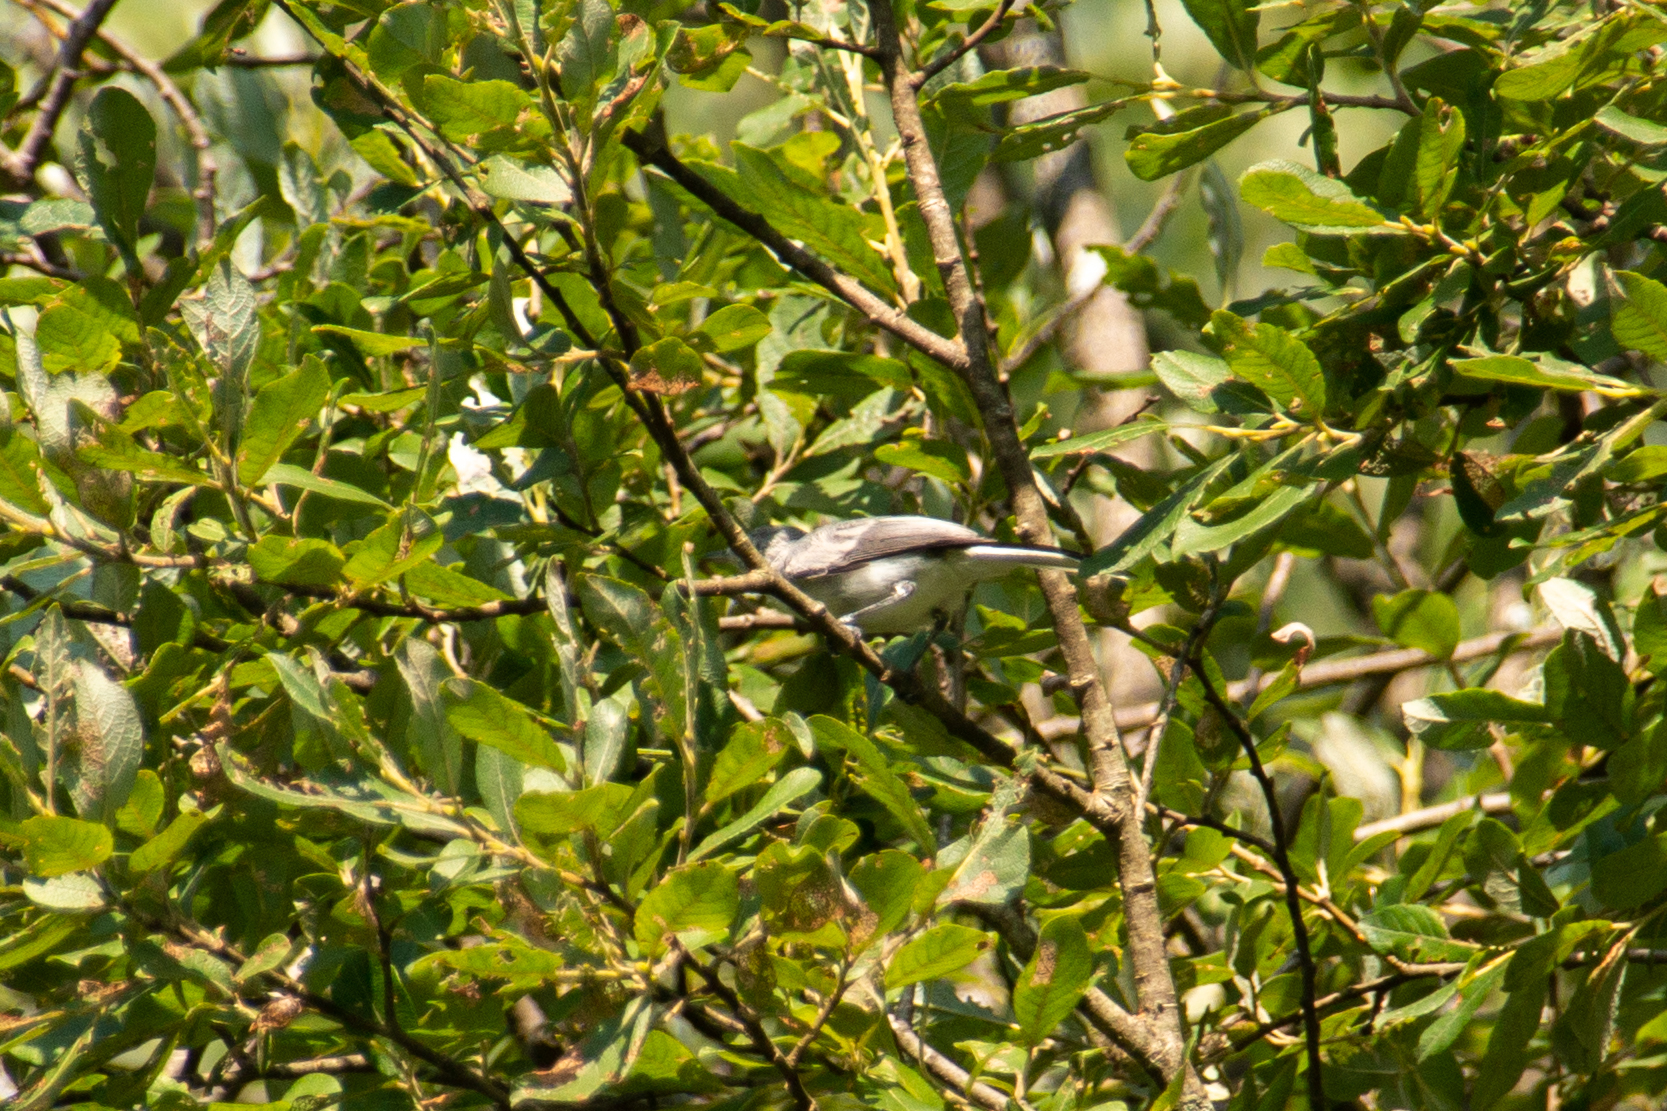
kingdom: Animalia
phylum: Chordata
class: Aves
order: Passeriformes
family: Polioptilidae
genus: Polioptila
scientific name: Polioptila caerulea
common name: Blue-gray gnatcatcher
